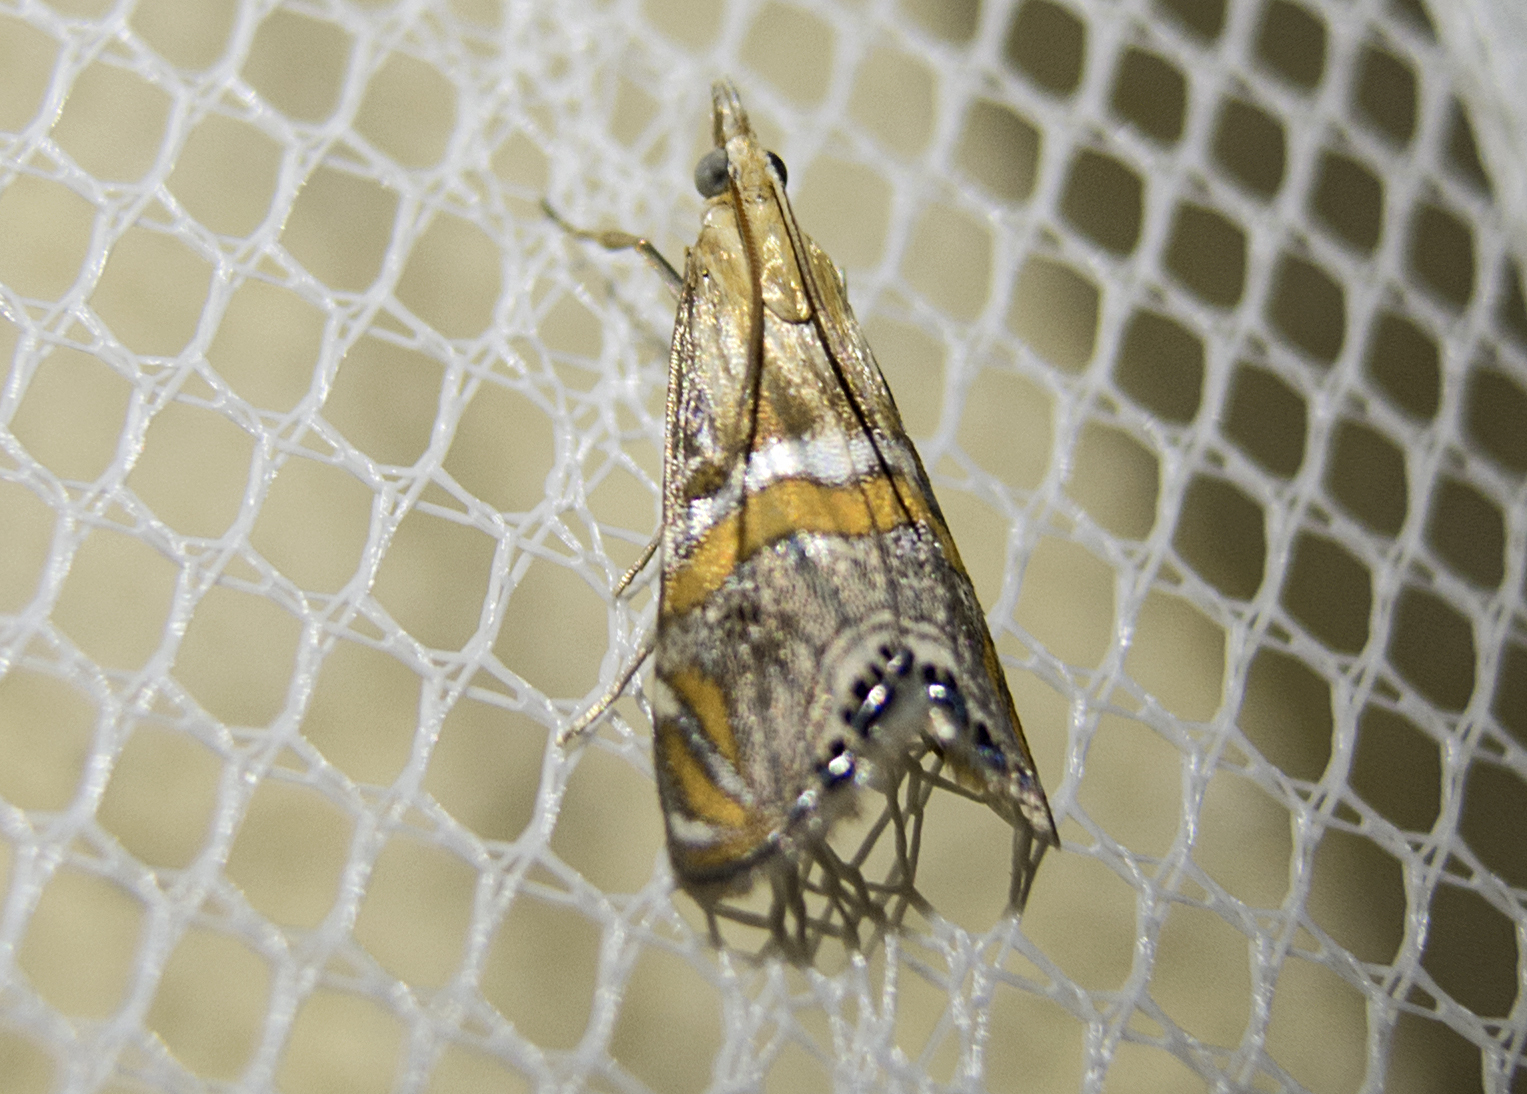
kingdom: Animalia
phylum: Arthropoda
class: Insecta
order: Lepidoptera
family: Crambidae
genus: Euchromius
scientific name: Euchromius bella
